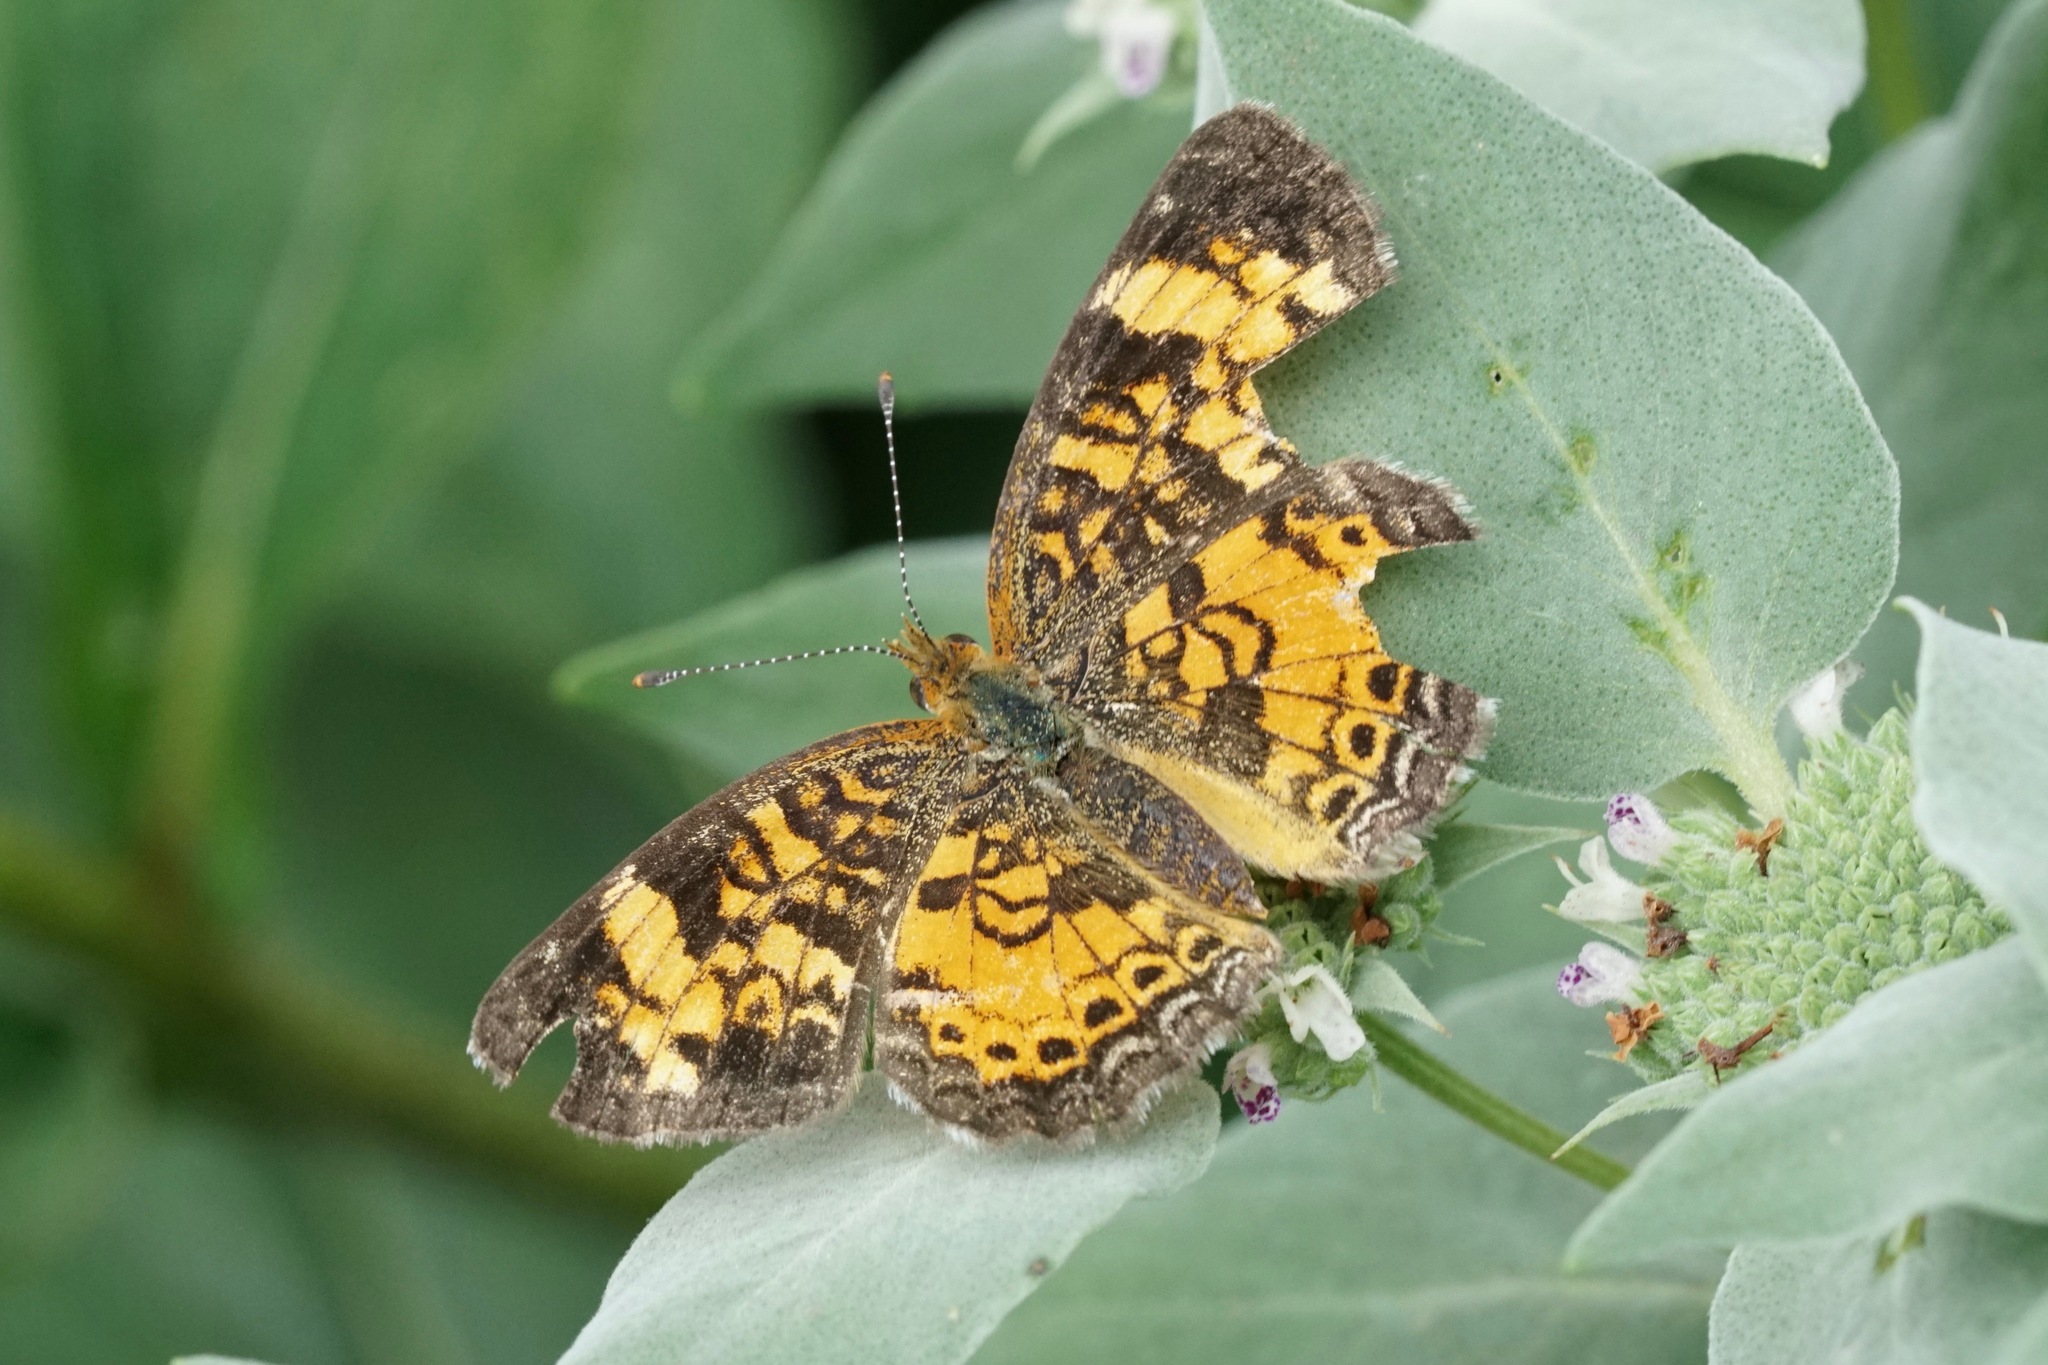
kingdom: Animalia
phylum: Arthropoda
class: Insecta
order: Lepidoptera
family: Nymphalidae
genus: Phyciodes
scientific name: Phyciodes tharos
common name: Pearl crescent
